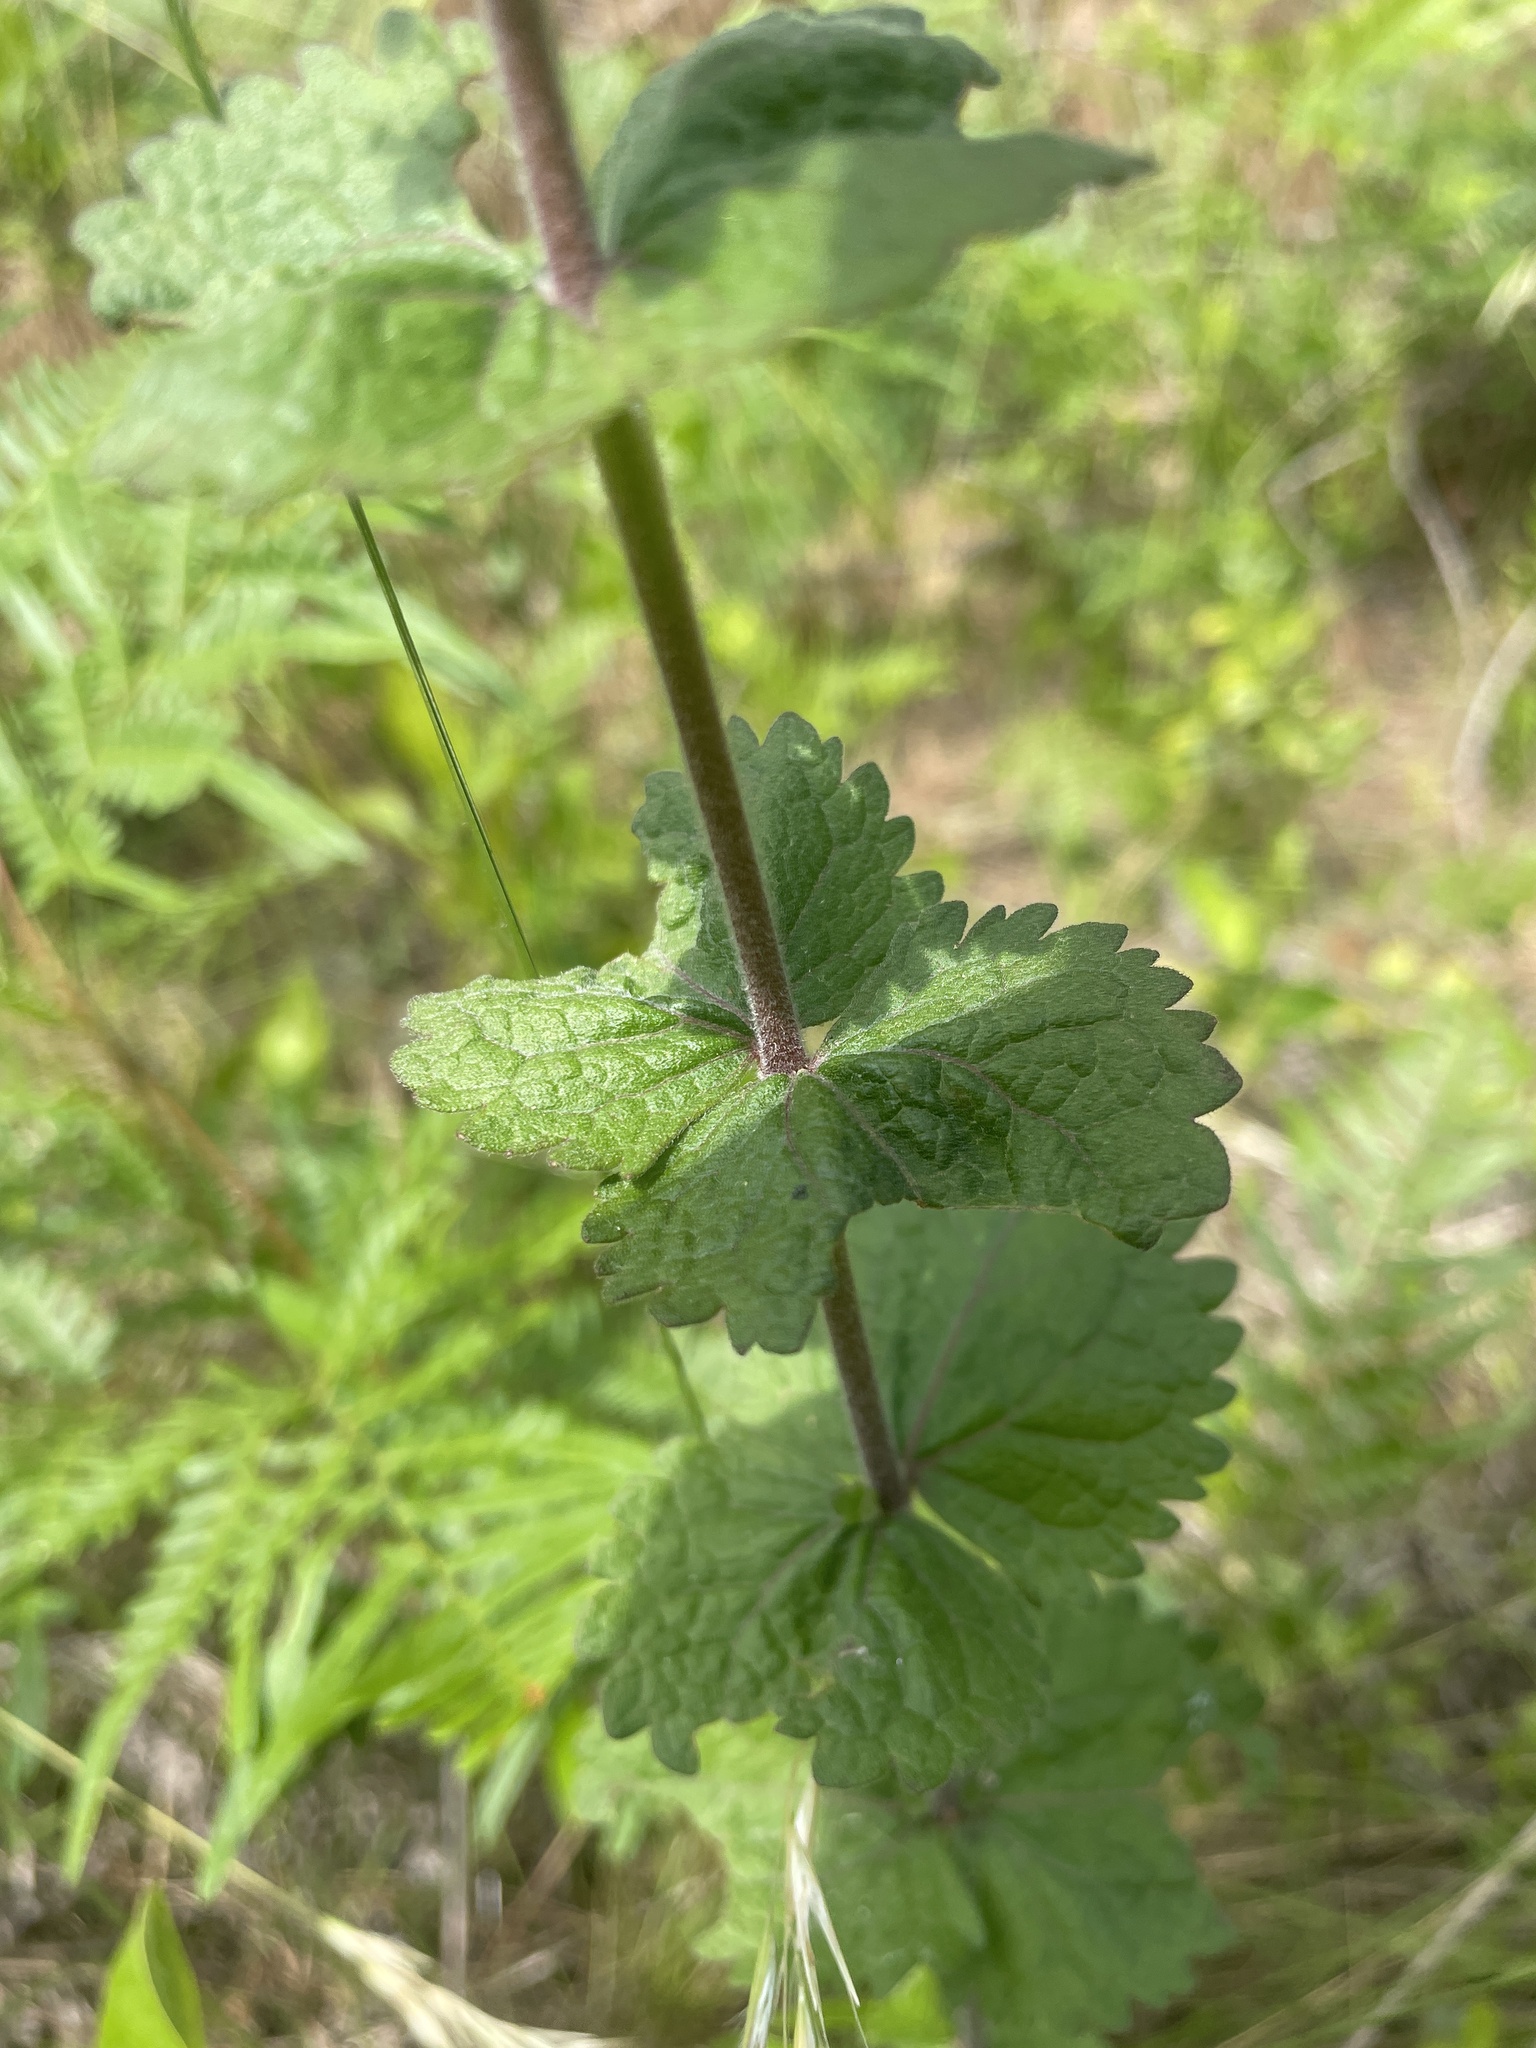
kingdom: Plantae
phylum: Tracheophyta
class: Magnoliopsida
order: Asterales
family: Asteraceae
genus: Eupatorium
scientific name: Eupatorium rotundifolium
